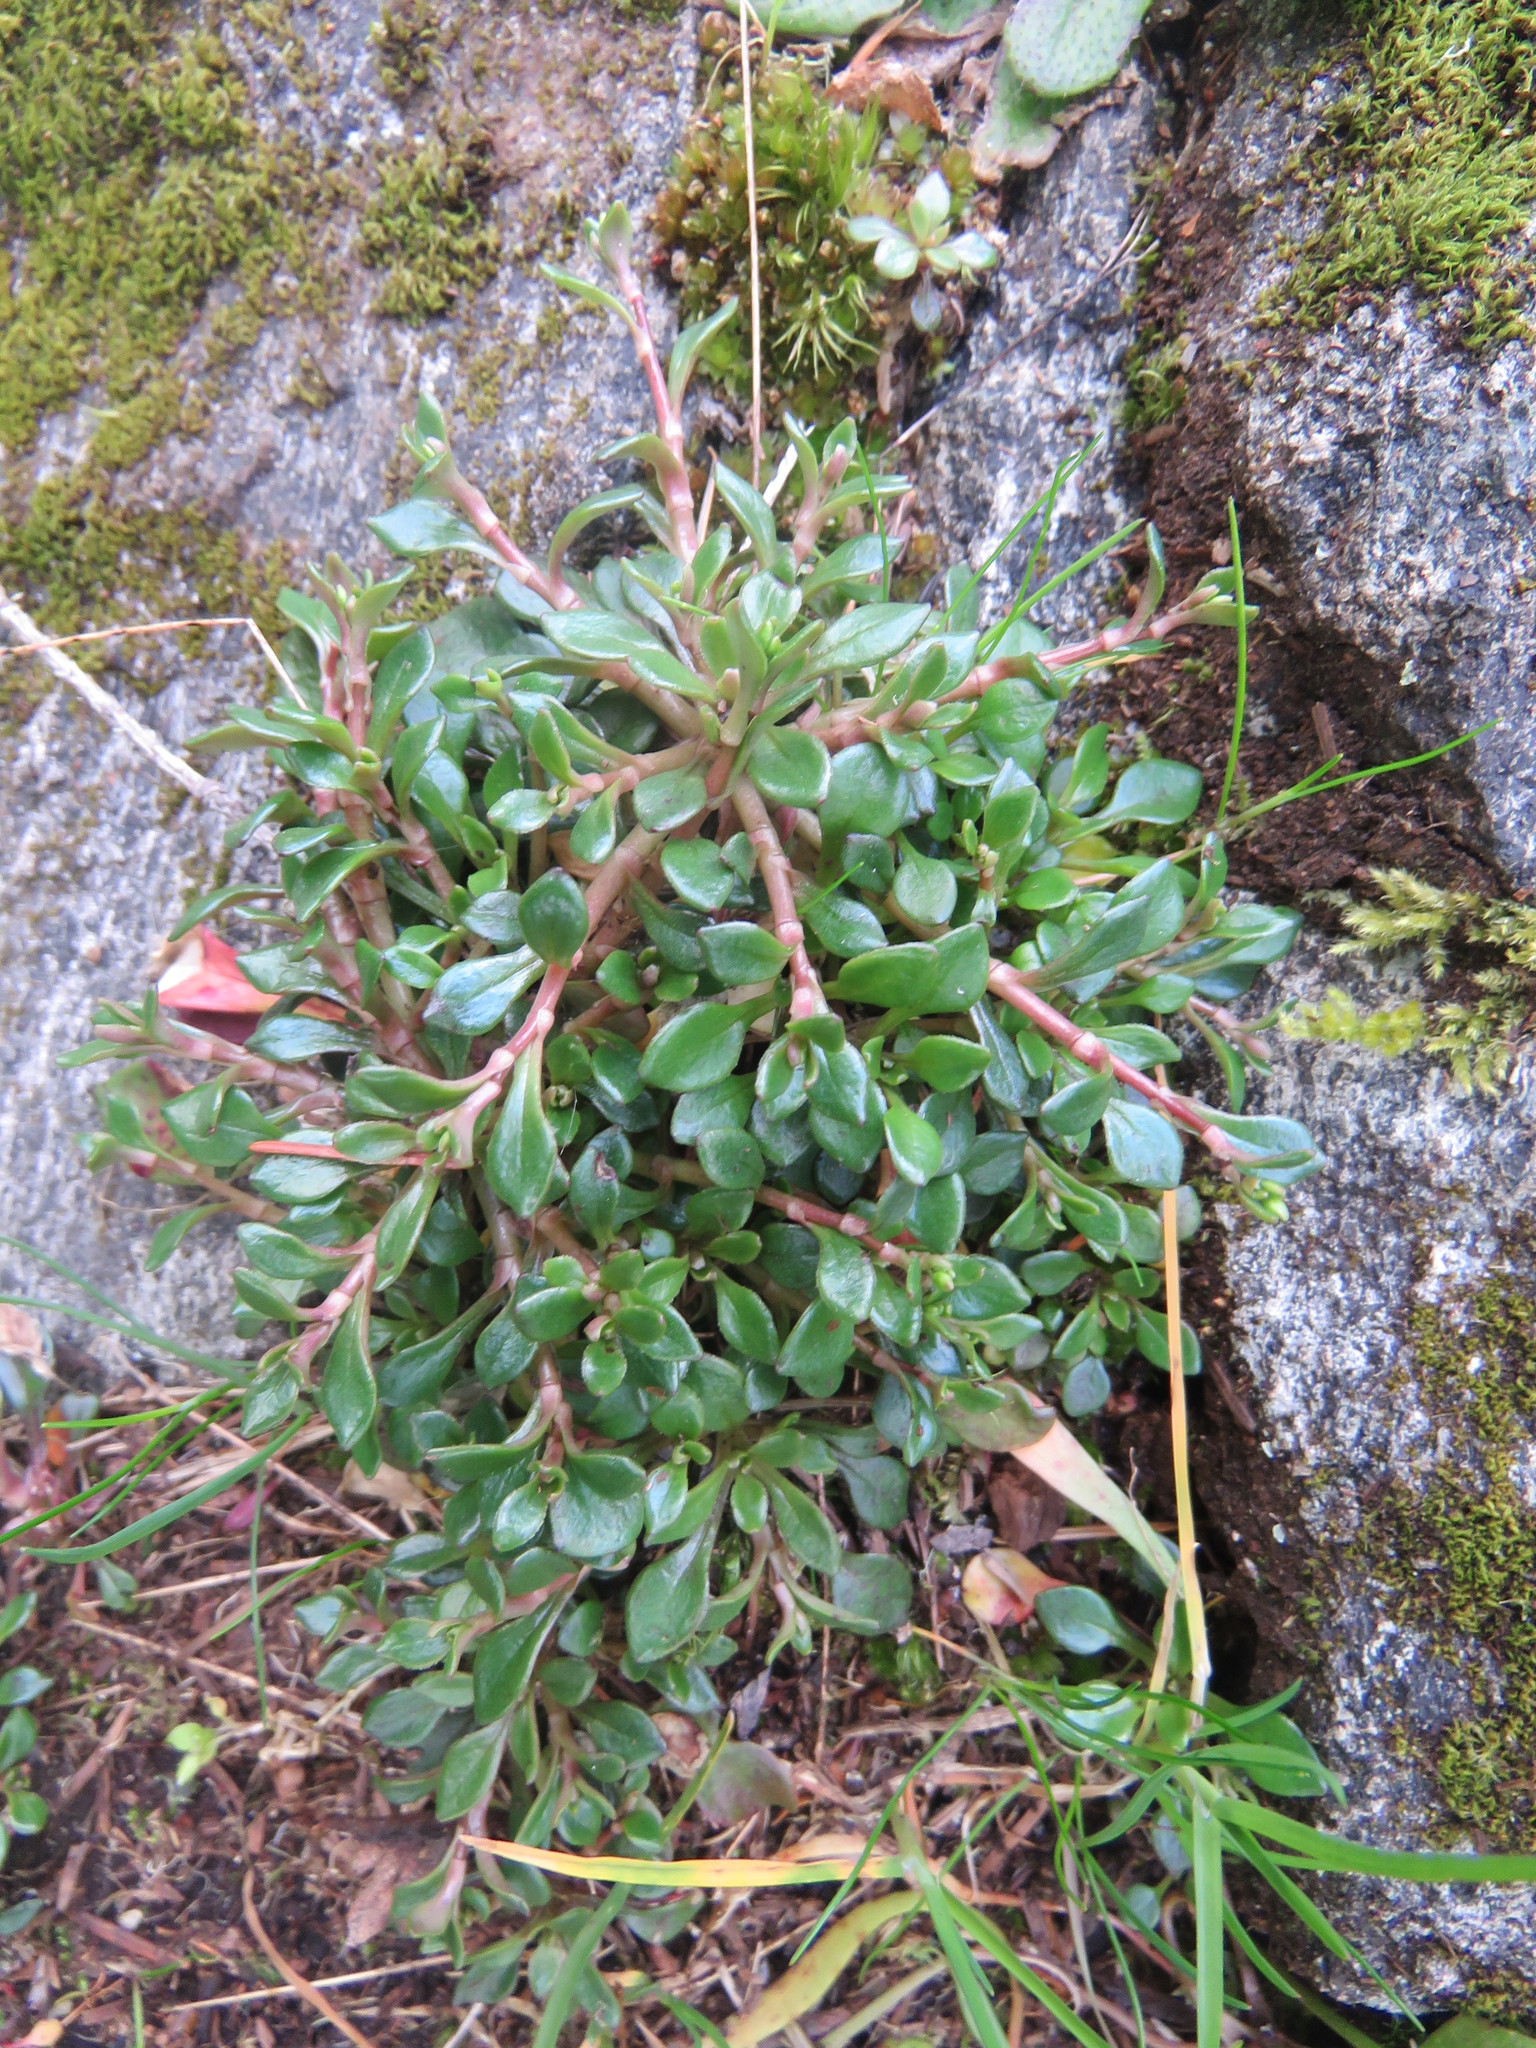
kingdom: Plantae
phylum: Tracheophyta
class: Magnoliopsida
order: Caryophyllales
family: Montiaceae
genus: Montia
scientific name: Montia parvifolia
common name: Small-leaved blinks
